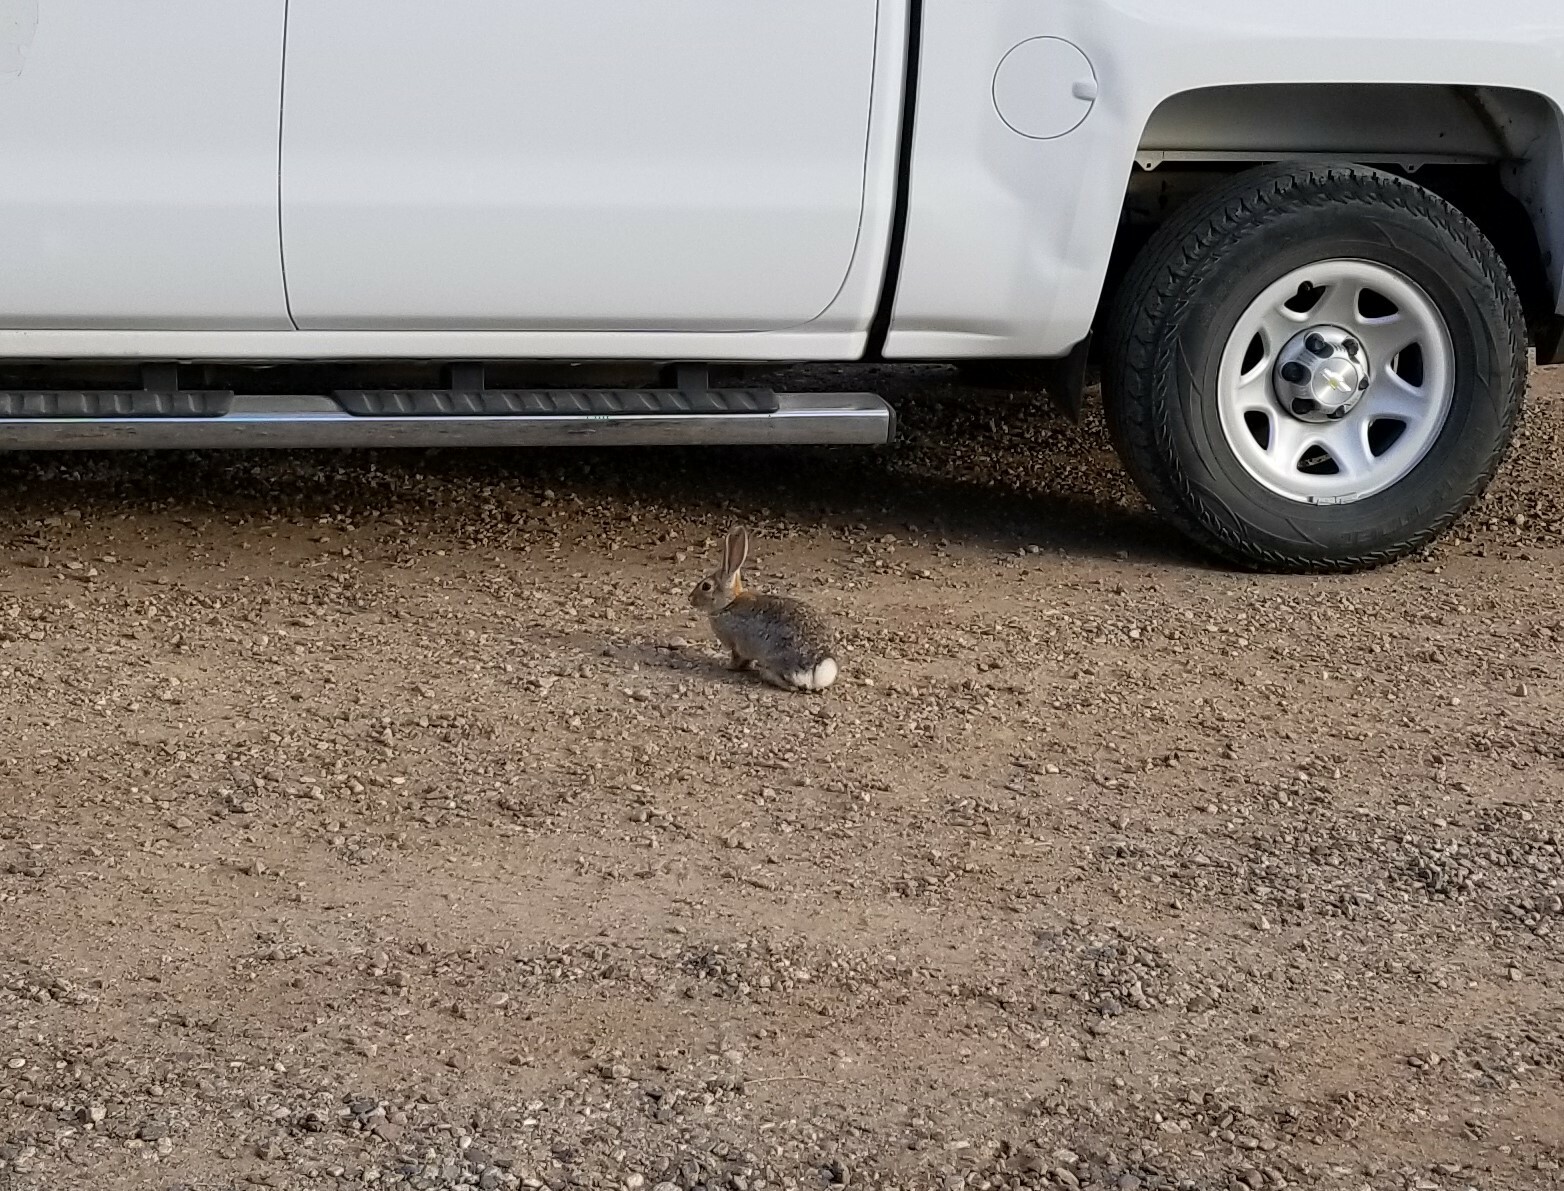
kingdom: Animalia
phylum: Chordata
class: Mammalia
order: Lagomorpha
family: Leporidae
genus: Sylvilagus
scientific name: Sylvilagus audubonii
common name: Desert cottontail
